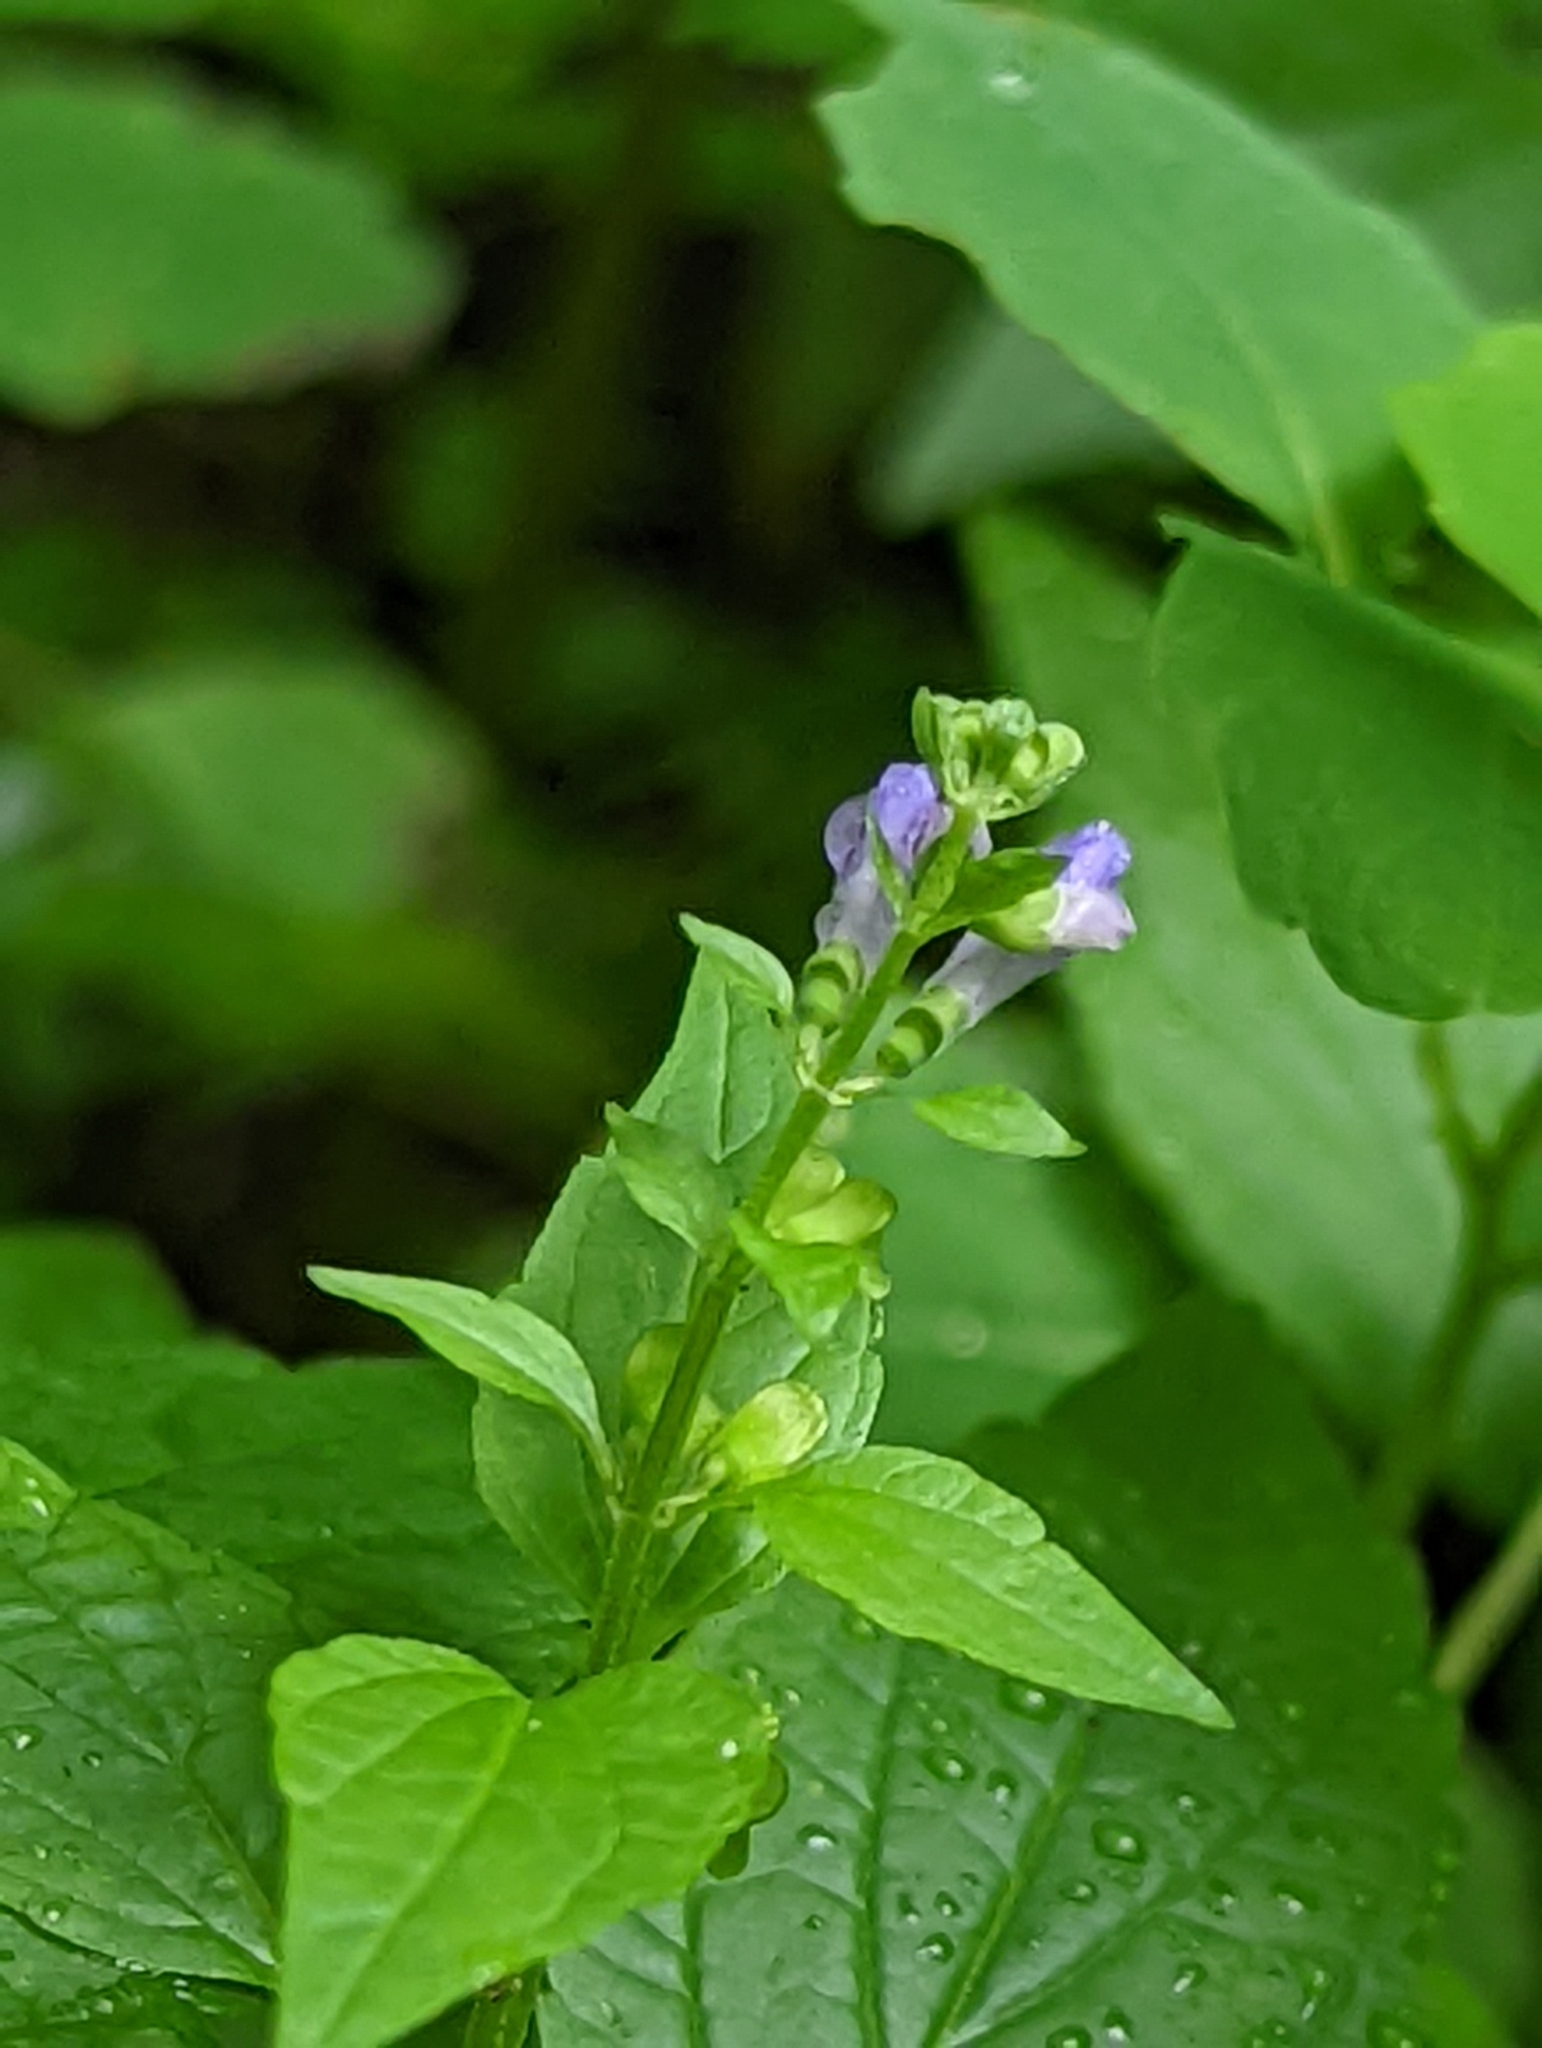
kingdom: Plantae
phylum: Tracheophyta
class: Magnoliopsida
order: Lamiales
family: Lamiaceae
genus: Scutellaria
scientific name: Scutellaria lateriflora
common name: Blue skullcap
